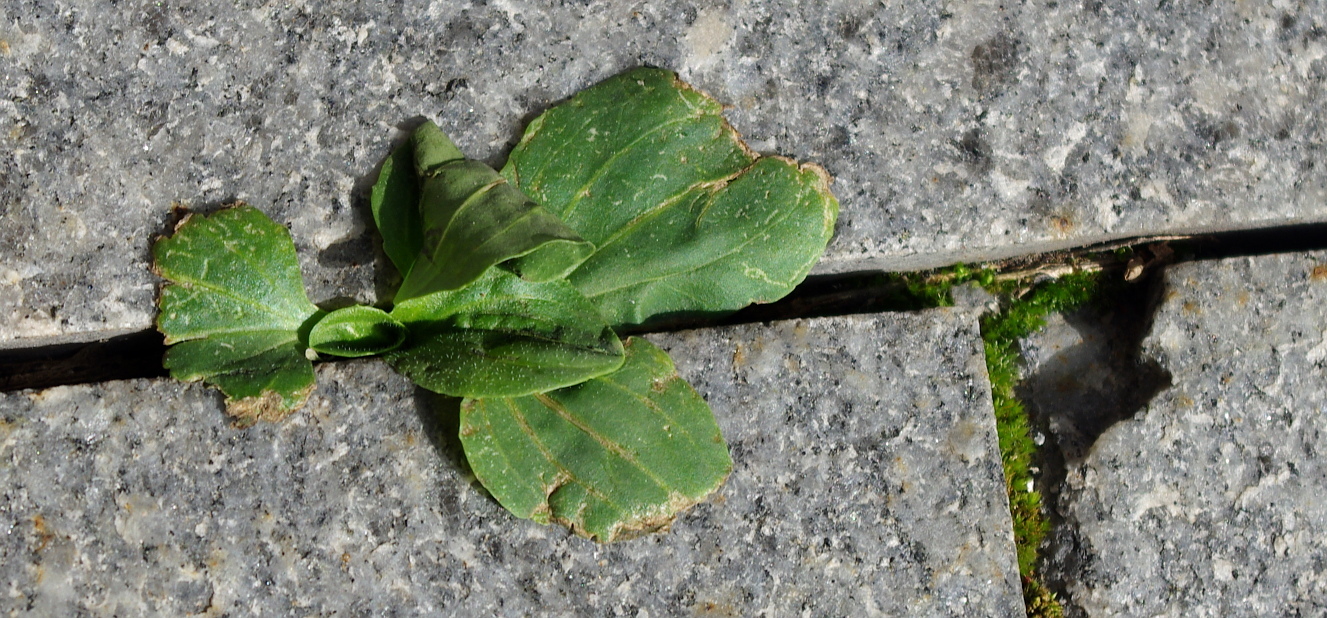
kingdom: Plantae
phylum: Tracheophyta
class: Magnoliopsida
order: Lamiales
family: Plantaginaceae
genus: Plantago
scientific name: Plantago major
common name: Common plantain
